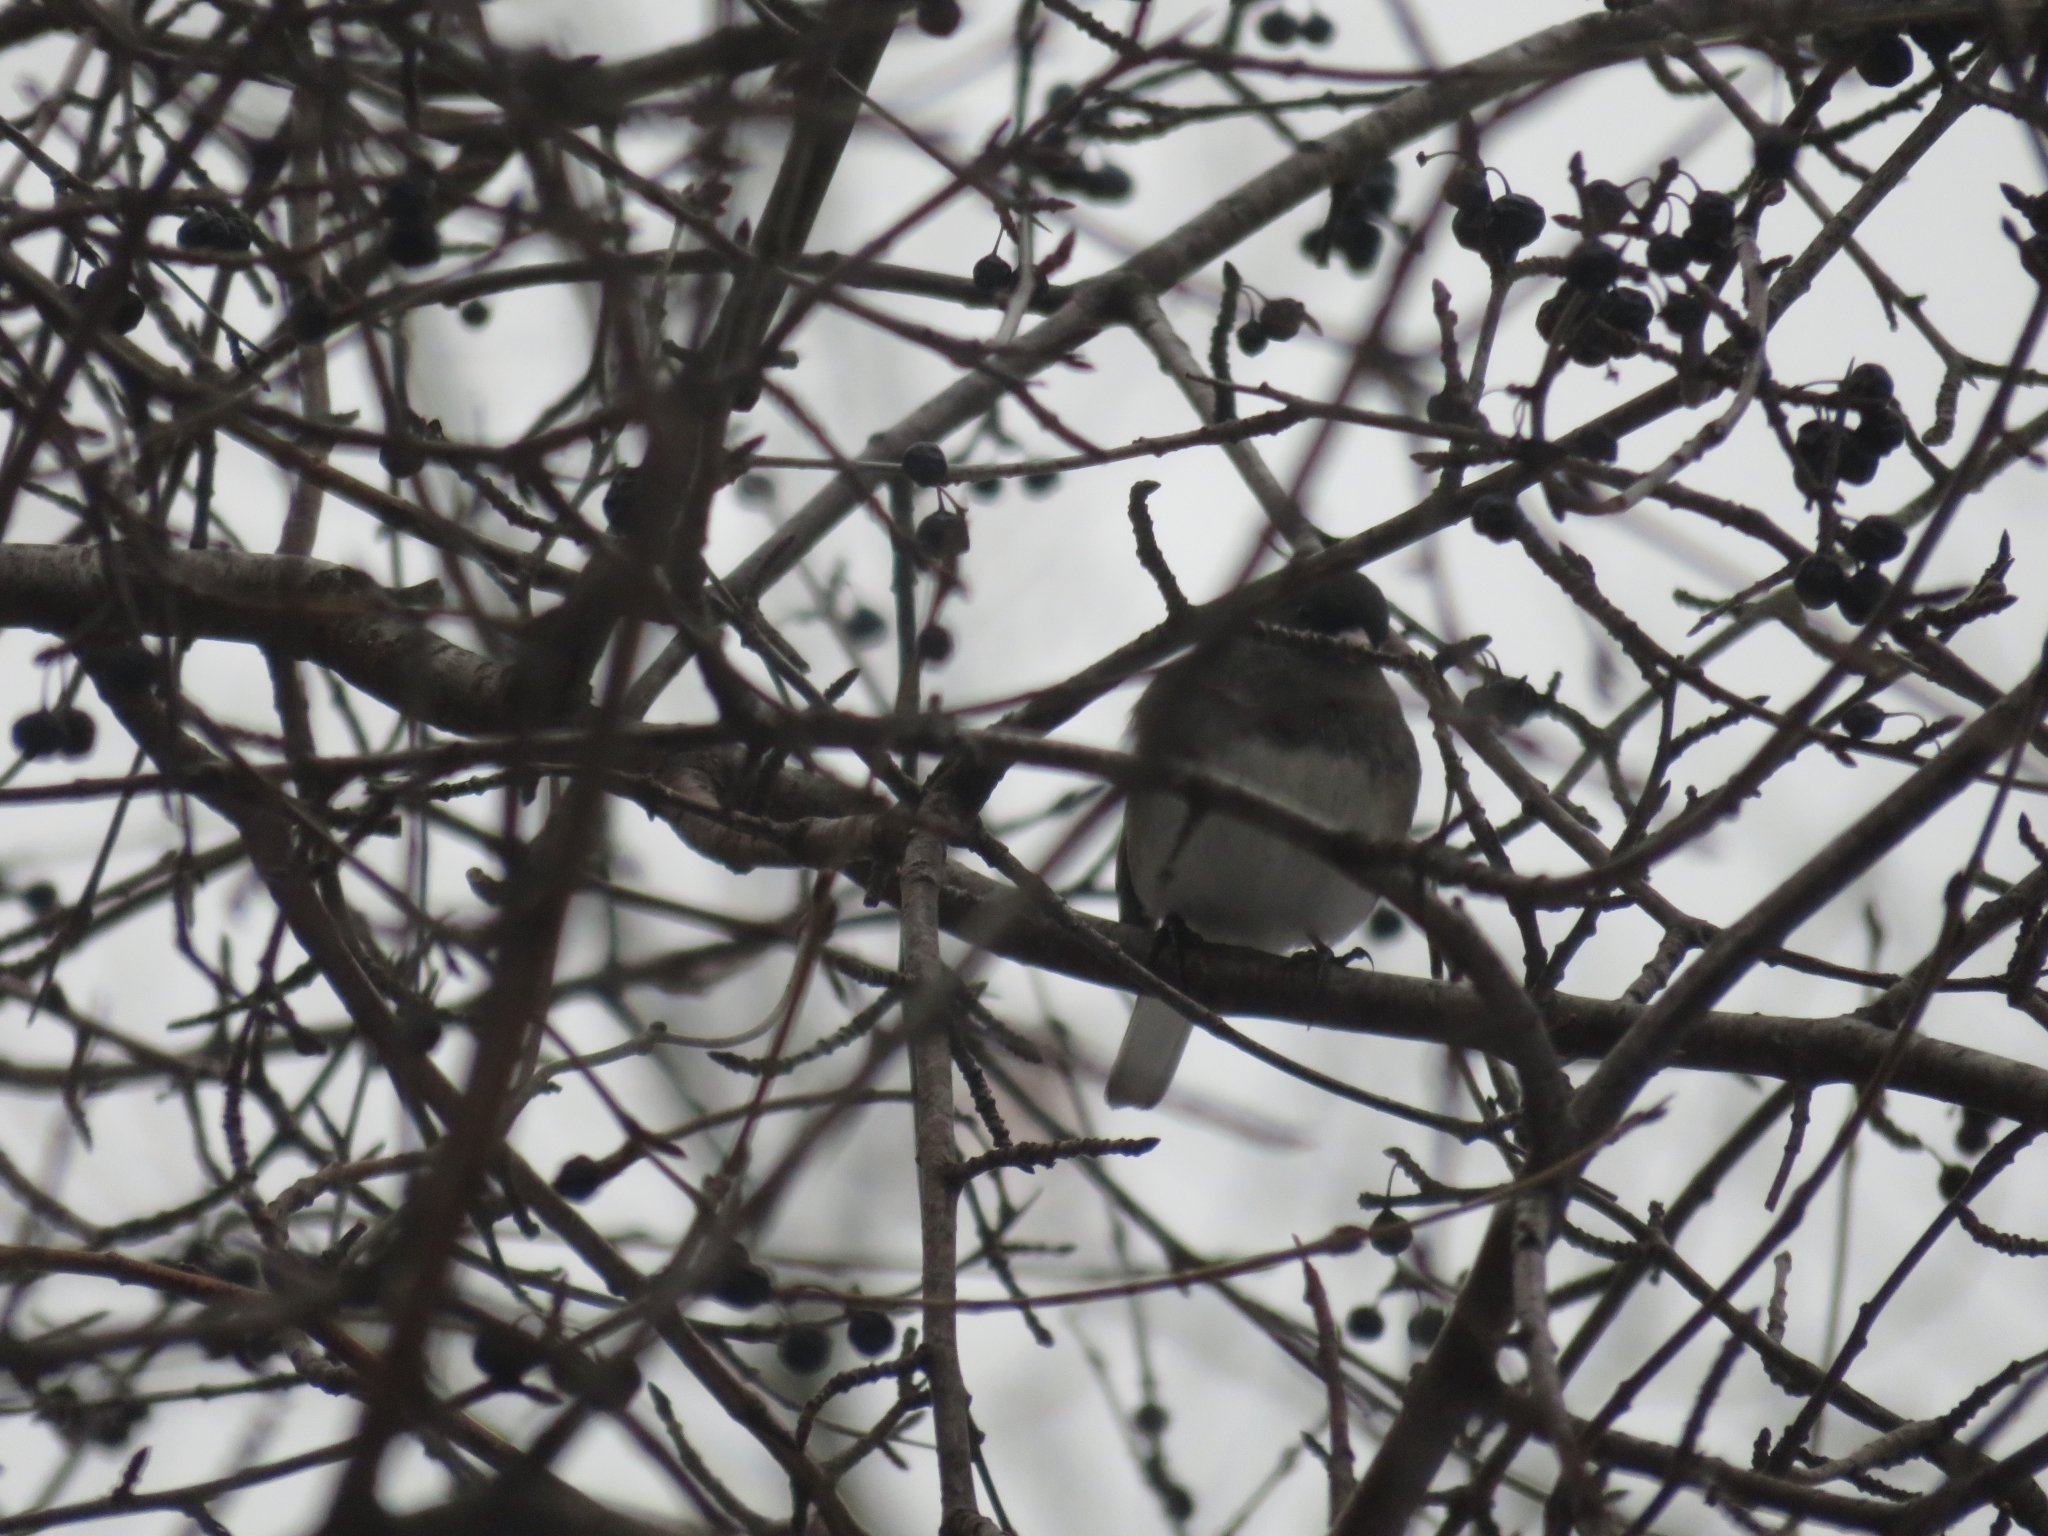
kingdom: Animalia
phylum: Chordata
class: Aves
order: Passeriformes
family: Passerellidae
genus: Junco
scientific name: Junco hyemalis
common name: Dark-eyed junco
